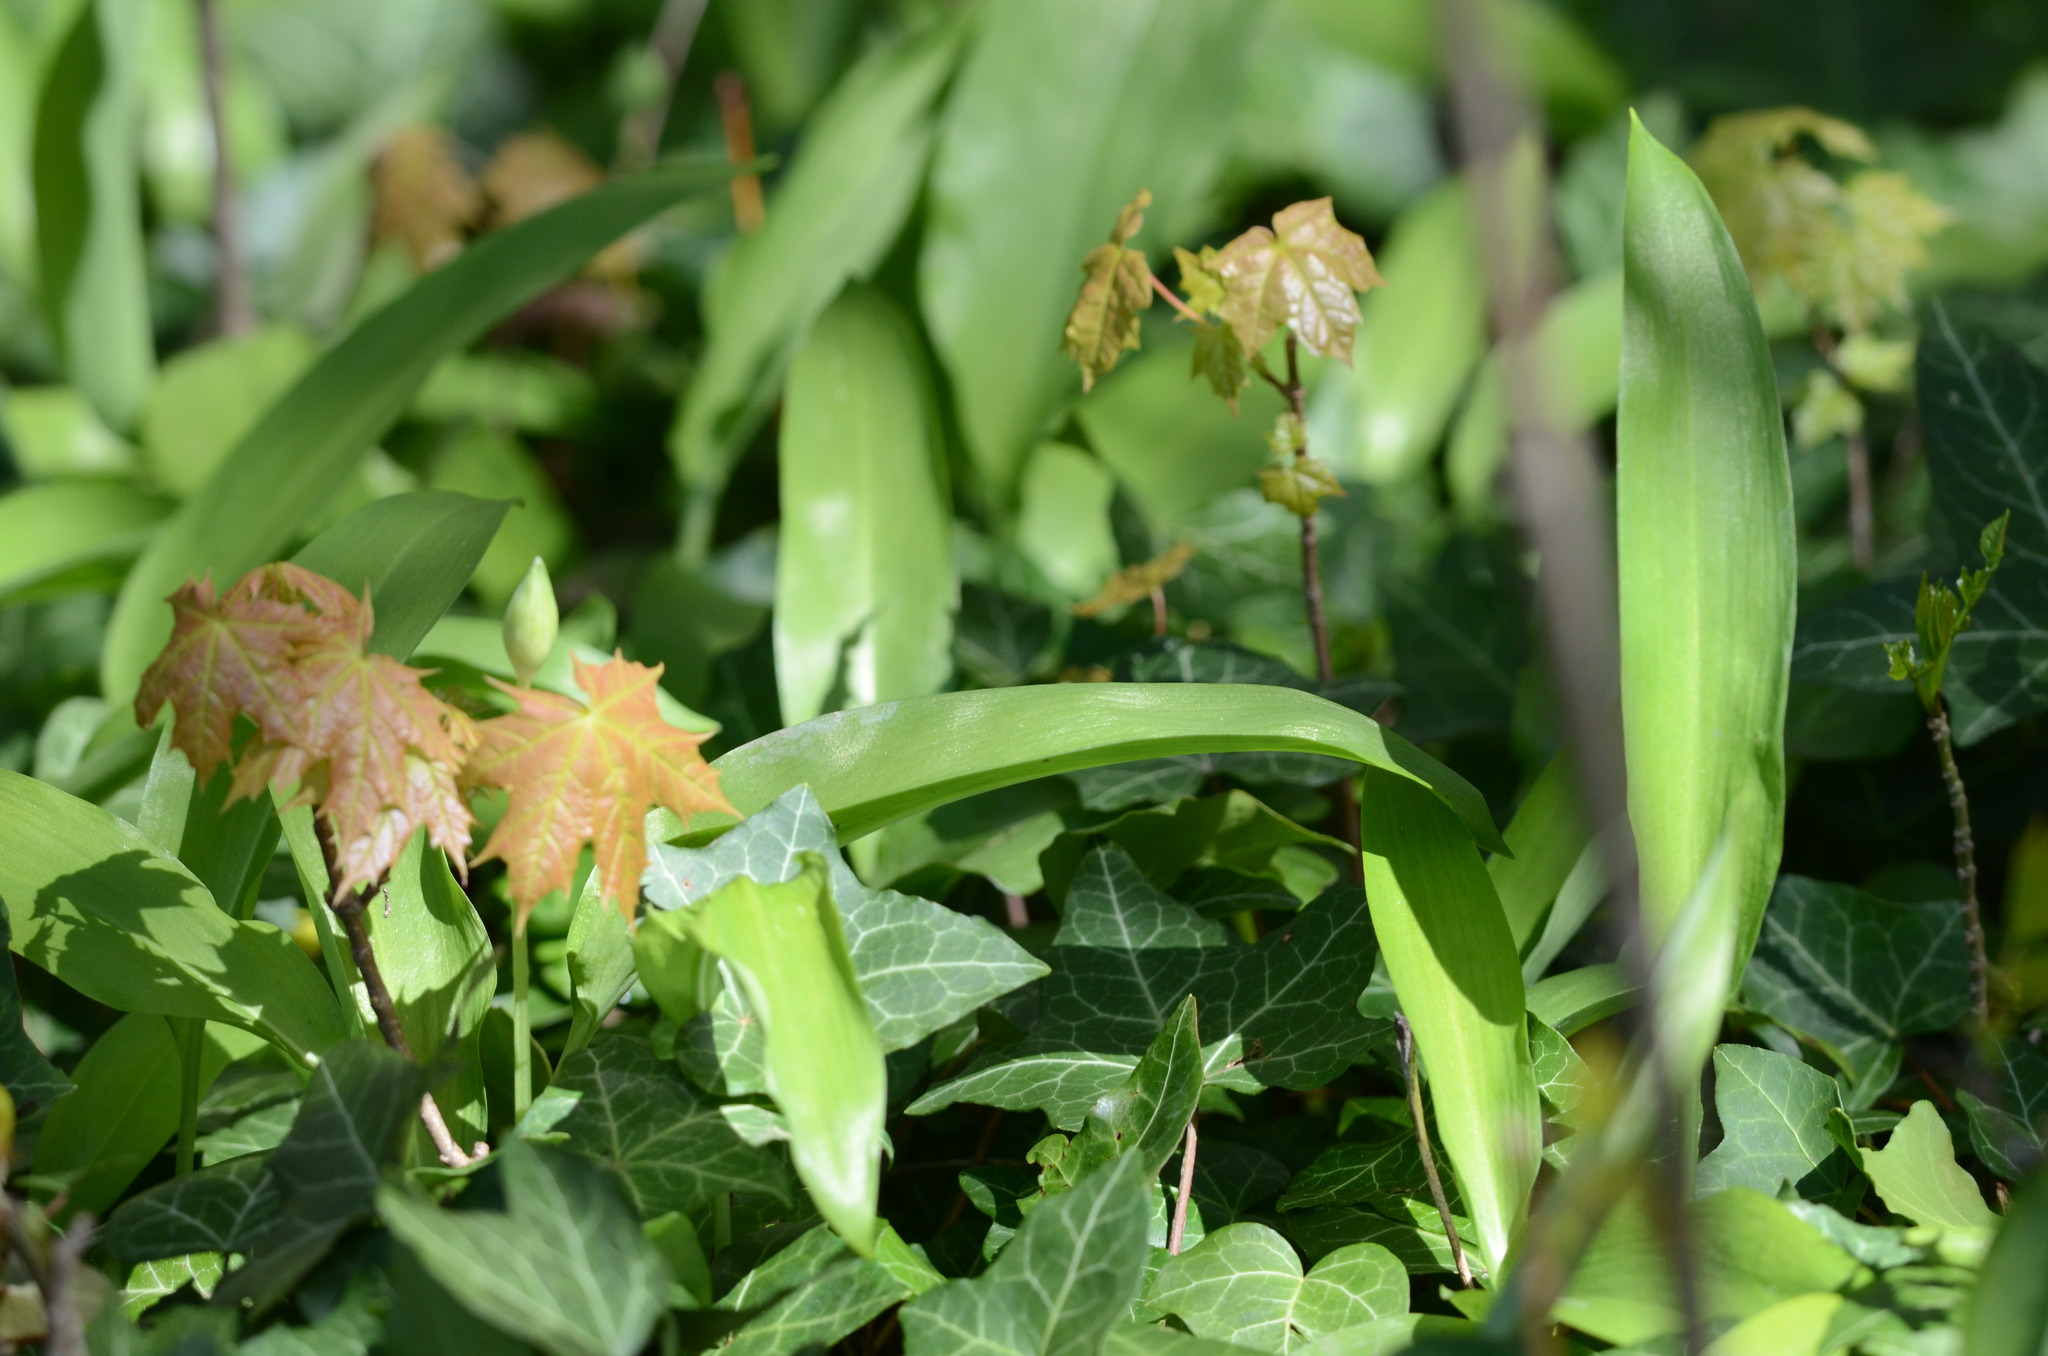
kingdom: Plantae
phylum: Tracheophyta
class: Liliopsida
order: Asparagales
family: Amaryllidaceae
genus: Allium
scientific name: Allium ursinum
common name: Ramsons
